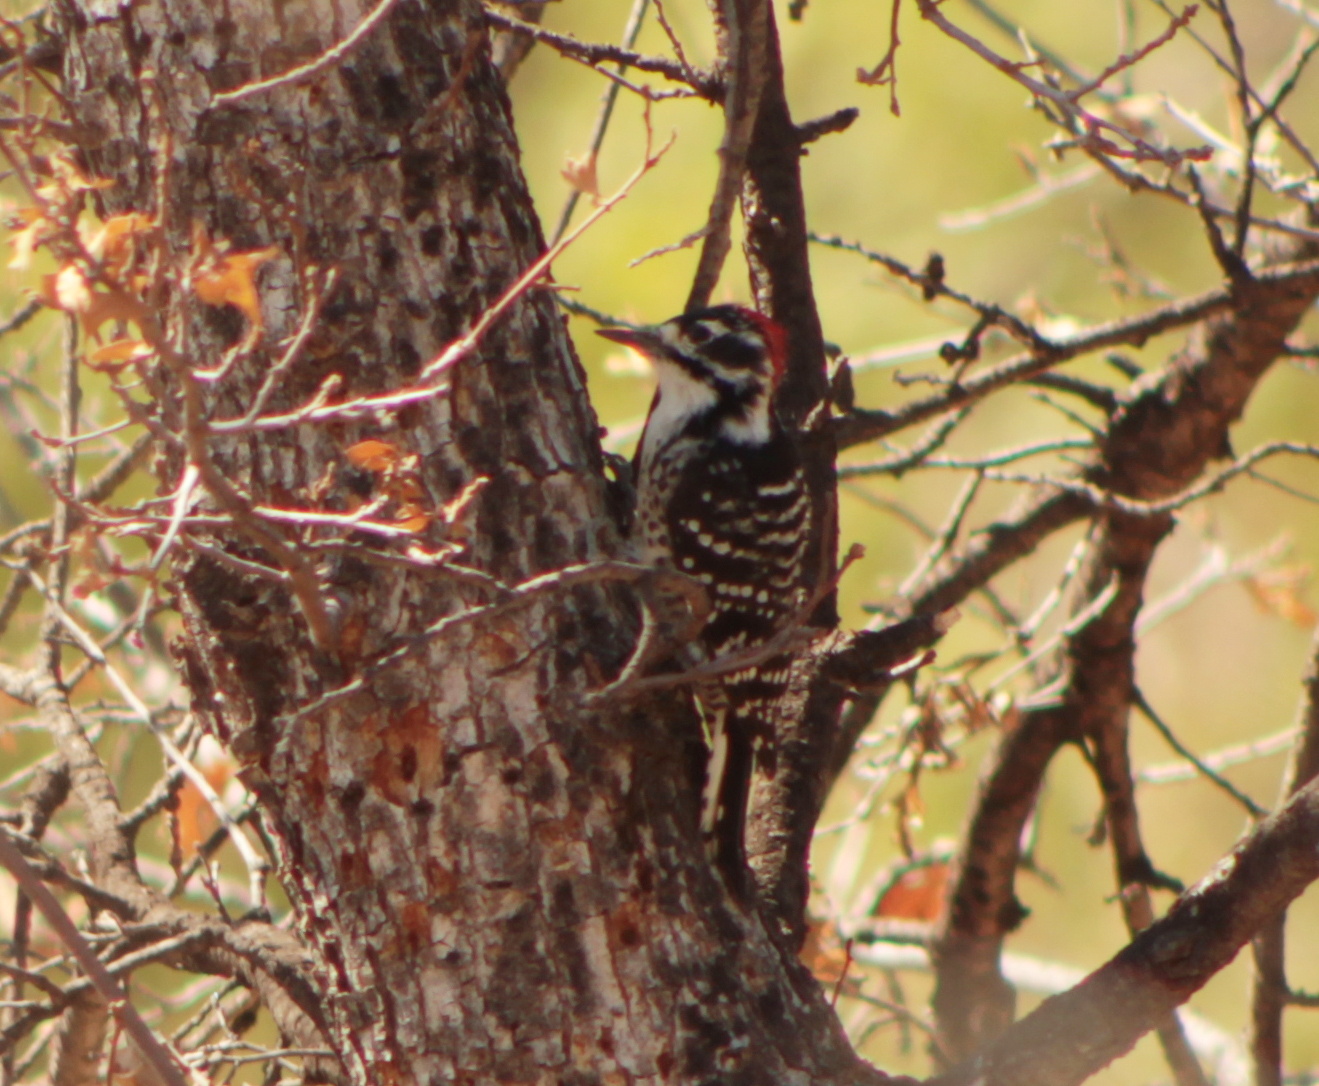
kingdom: Animalia
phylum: Chordata
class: Aves
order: Piciformes
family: Picidae
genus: Dryobates
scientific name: Dryobates nuttallii
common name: Nuttall's woodpecker
